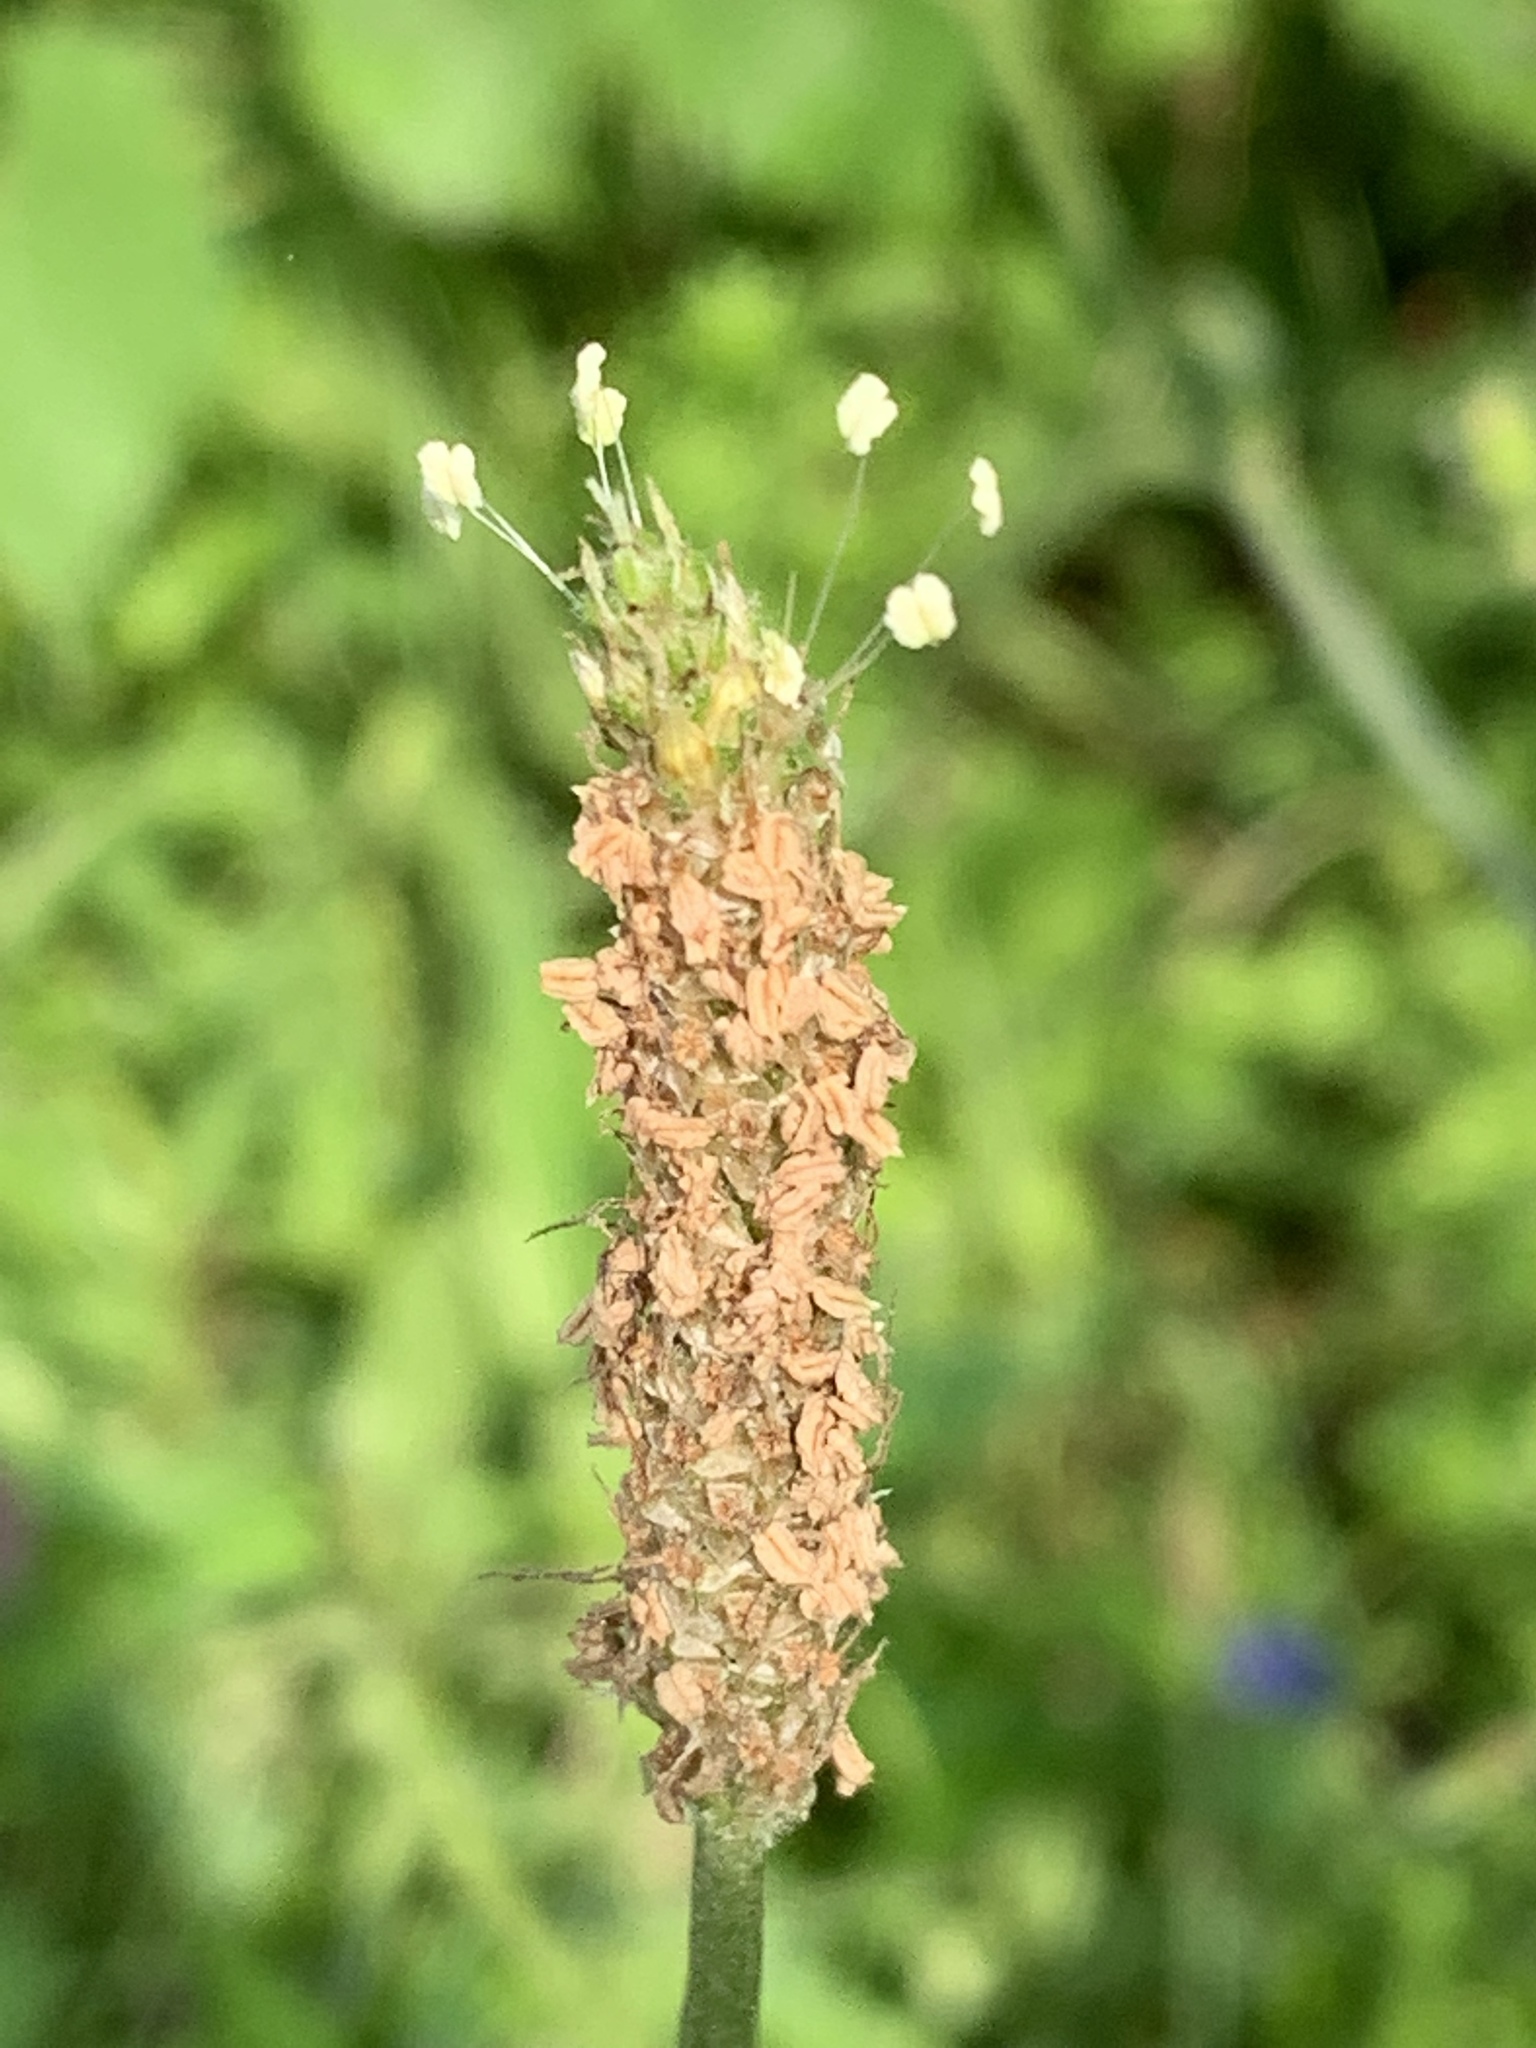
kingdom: Plantae
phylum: Tracheophyta
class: Magnoliopsida
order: Lamiales
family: Plantaginaceae
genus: Plantago
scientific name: Plantago lanceolata
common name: Ribwort plantain
